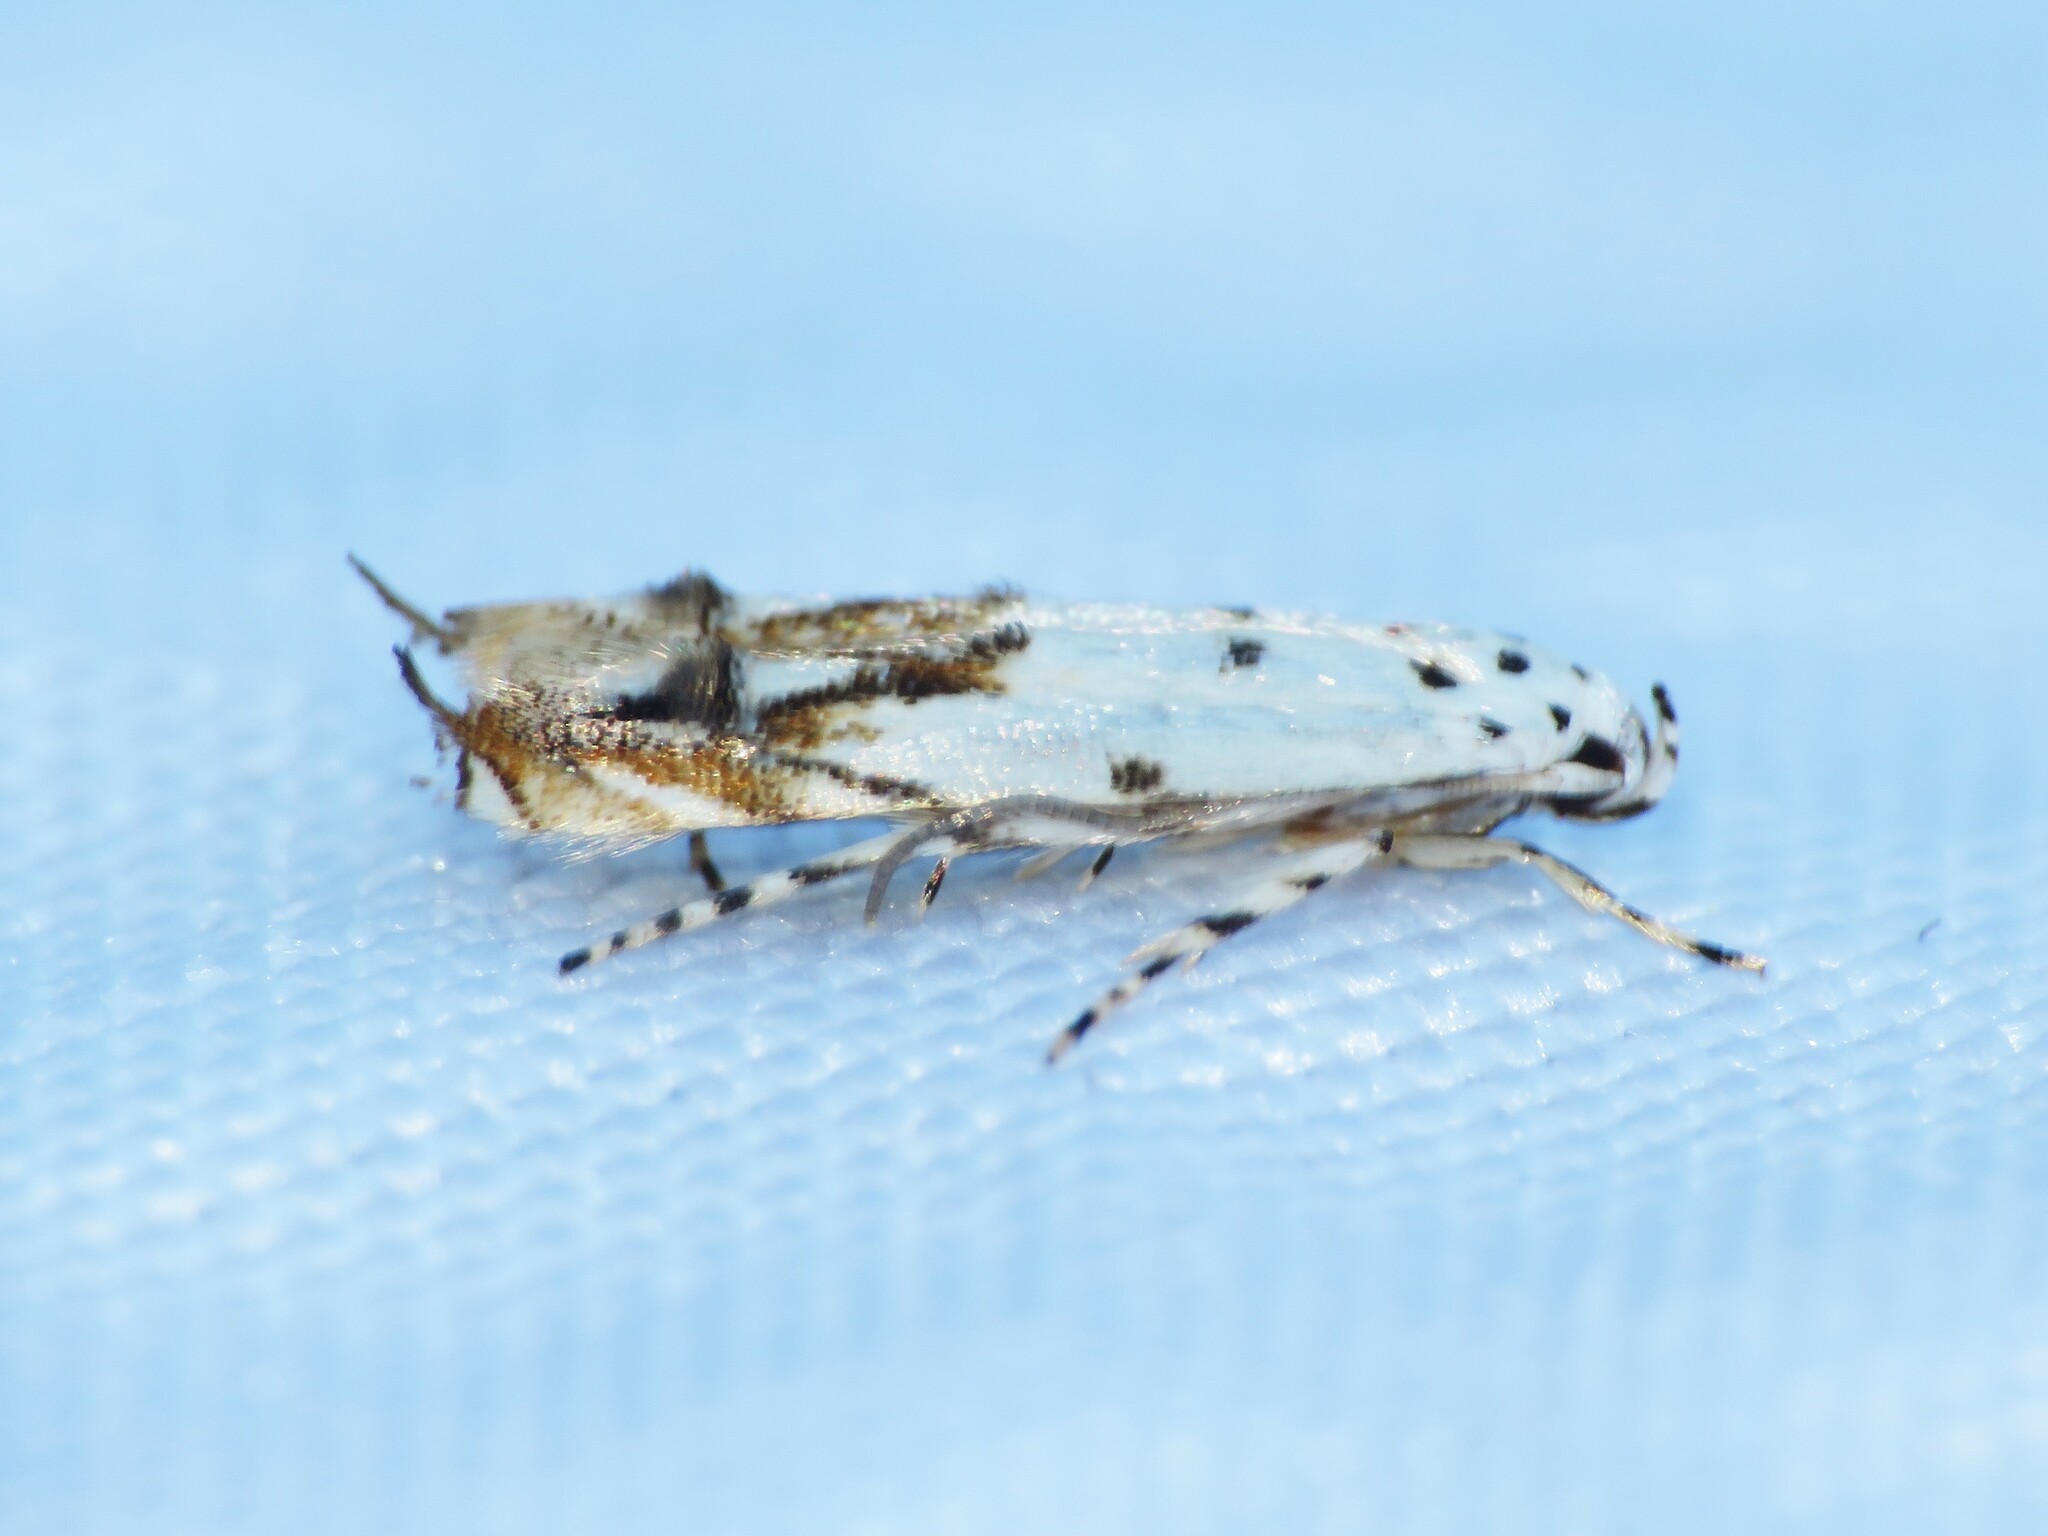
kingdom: Animalia
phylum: Arthropoda
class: Insecta
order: Lepidoptera
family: Momphidae
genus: Mompha
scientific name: Mompha eloisella
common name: Red-streaked mompha moth
